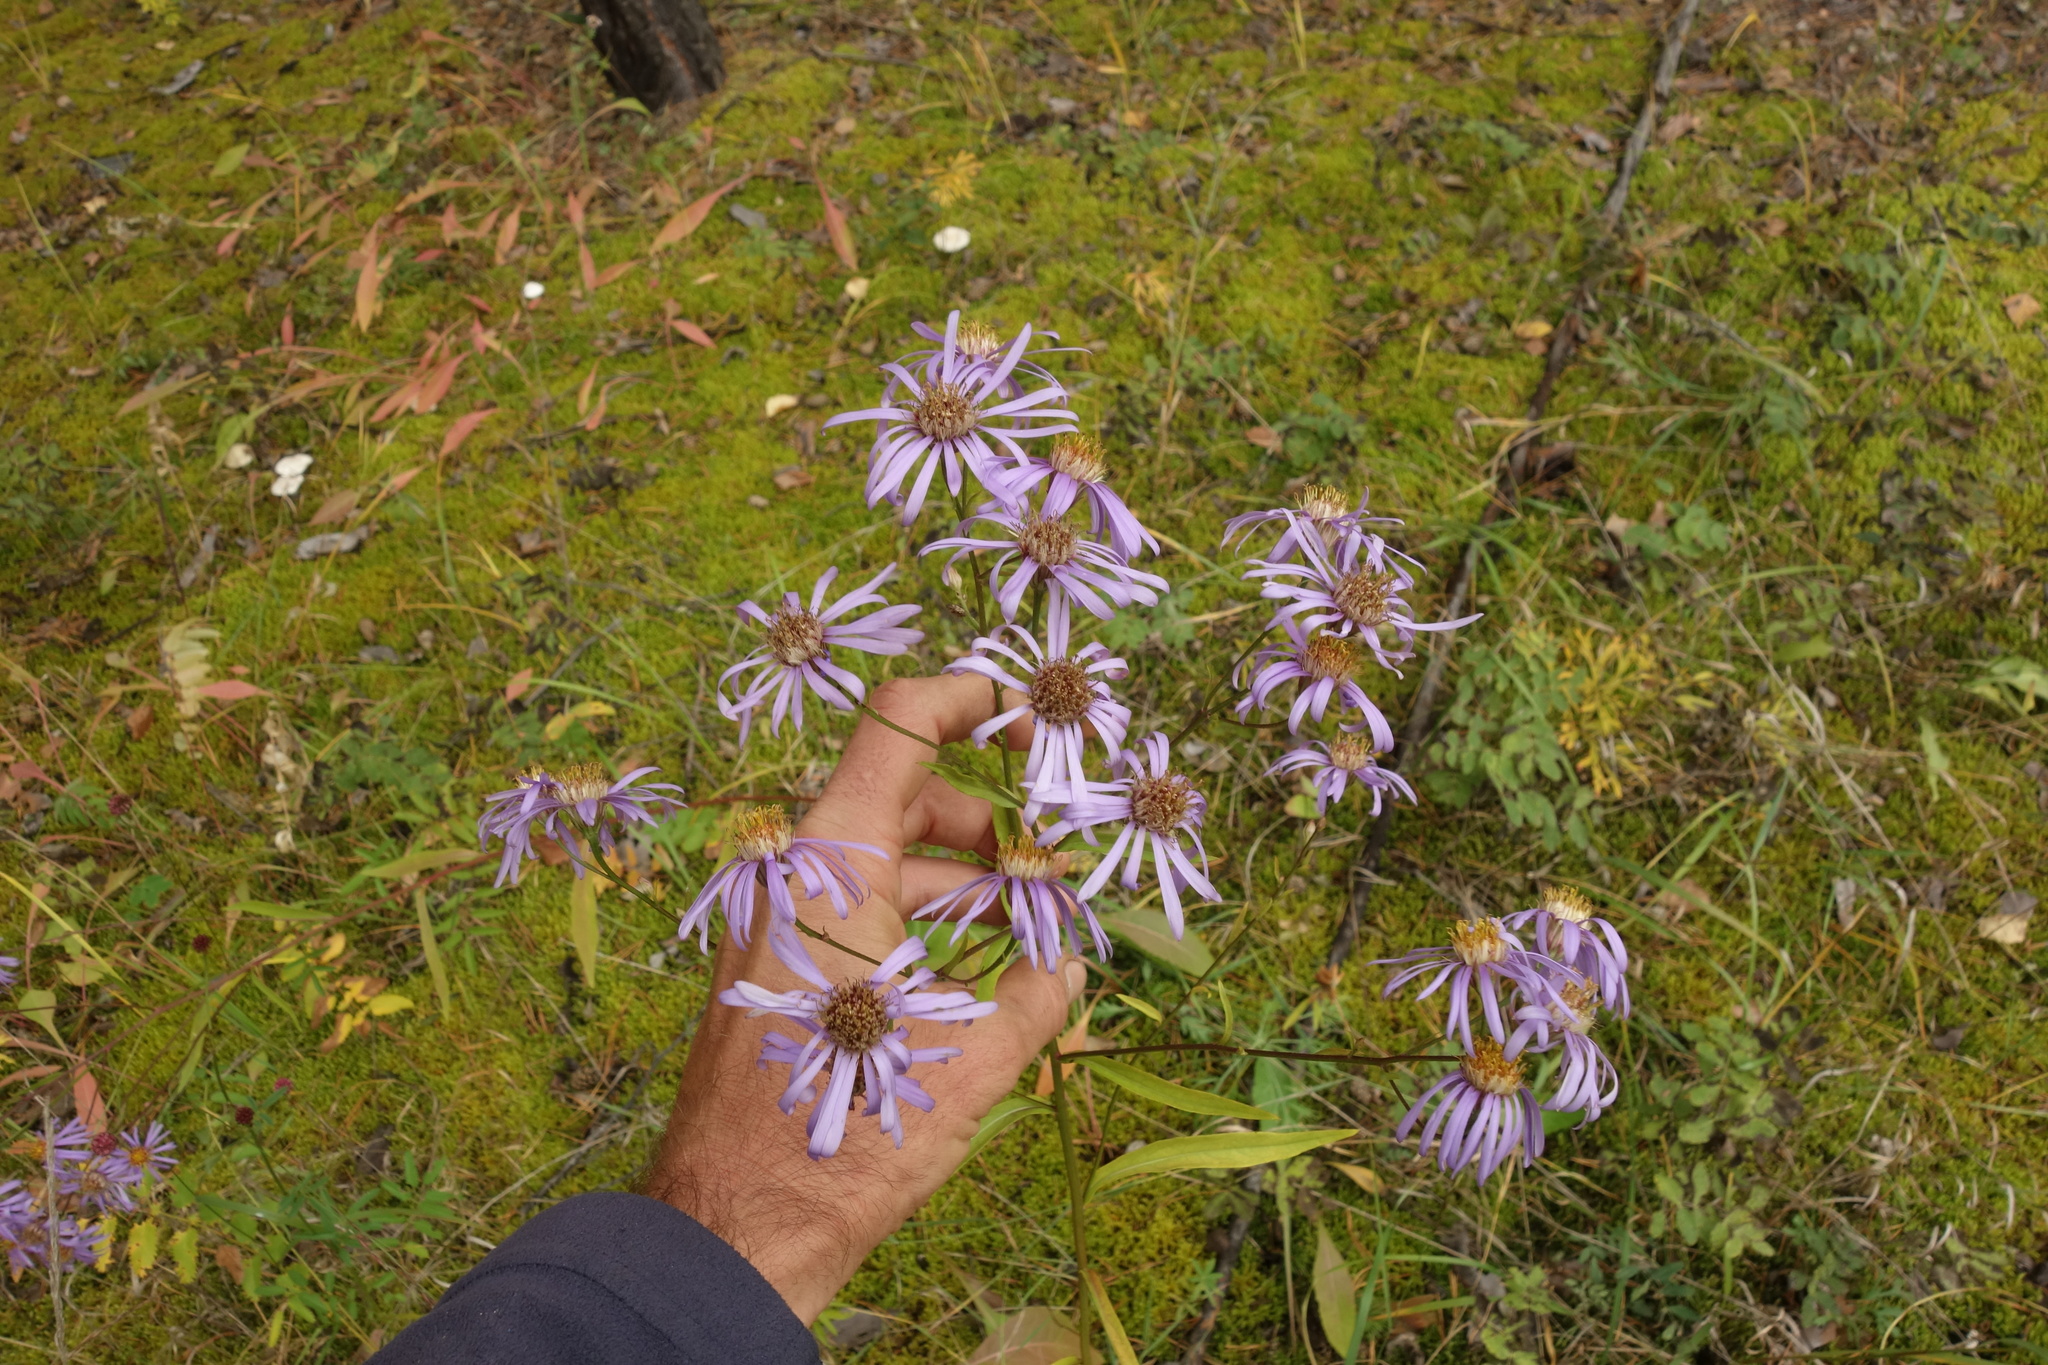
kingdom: Plantae
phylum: Tracheophyta
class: Magnoliopsida
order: Asterales
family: Asteraceae
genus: Aster
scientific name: Aster tataricus
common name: Tatarian aster
